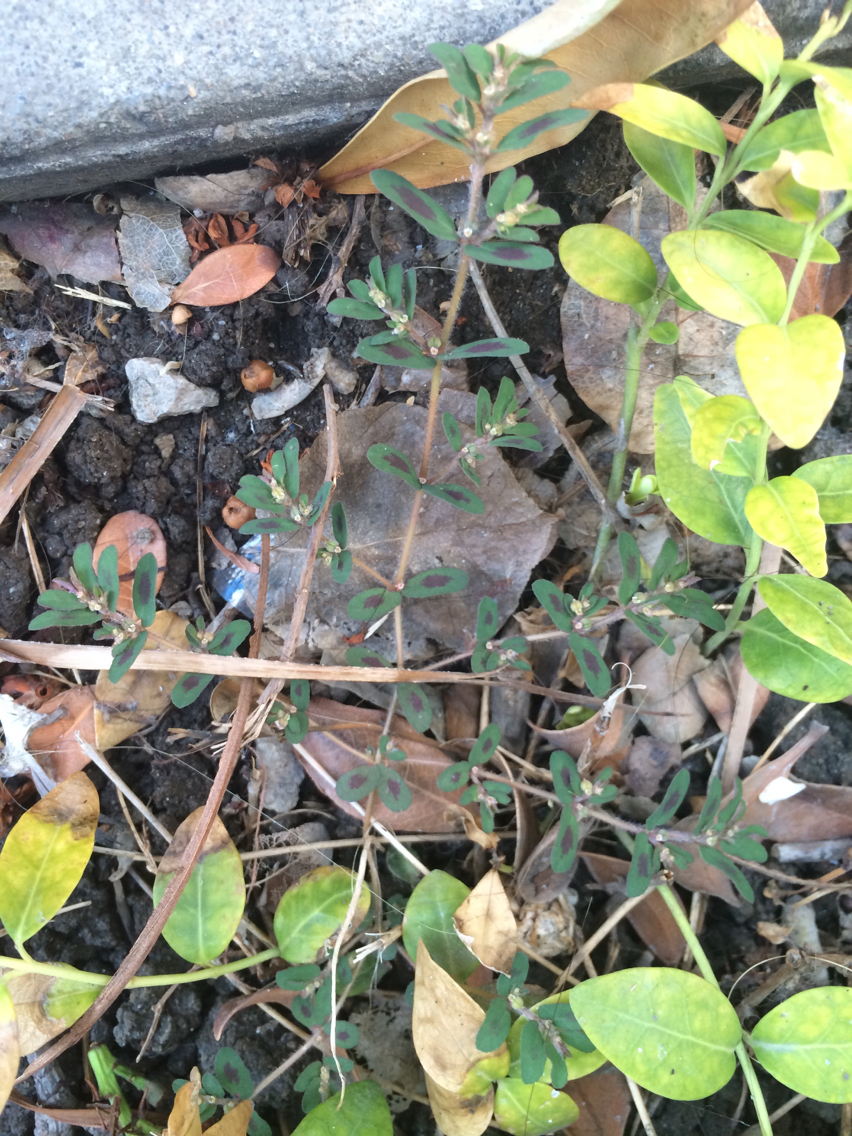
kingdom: Plantae
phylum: Tracheophyta
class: Magnoliopsida
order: Malpighiales
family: Euphorbiaceae
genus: Euphorbia
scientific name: Euphorbia maculata
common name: Spotted spurge
